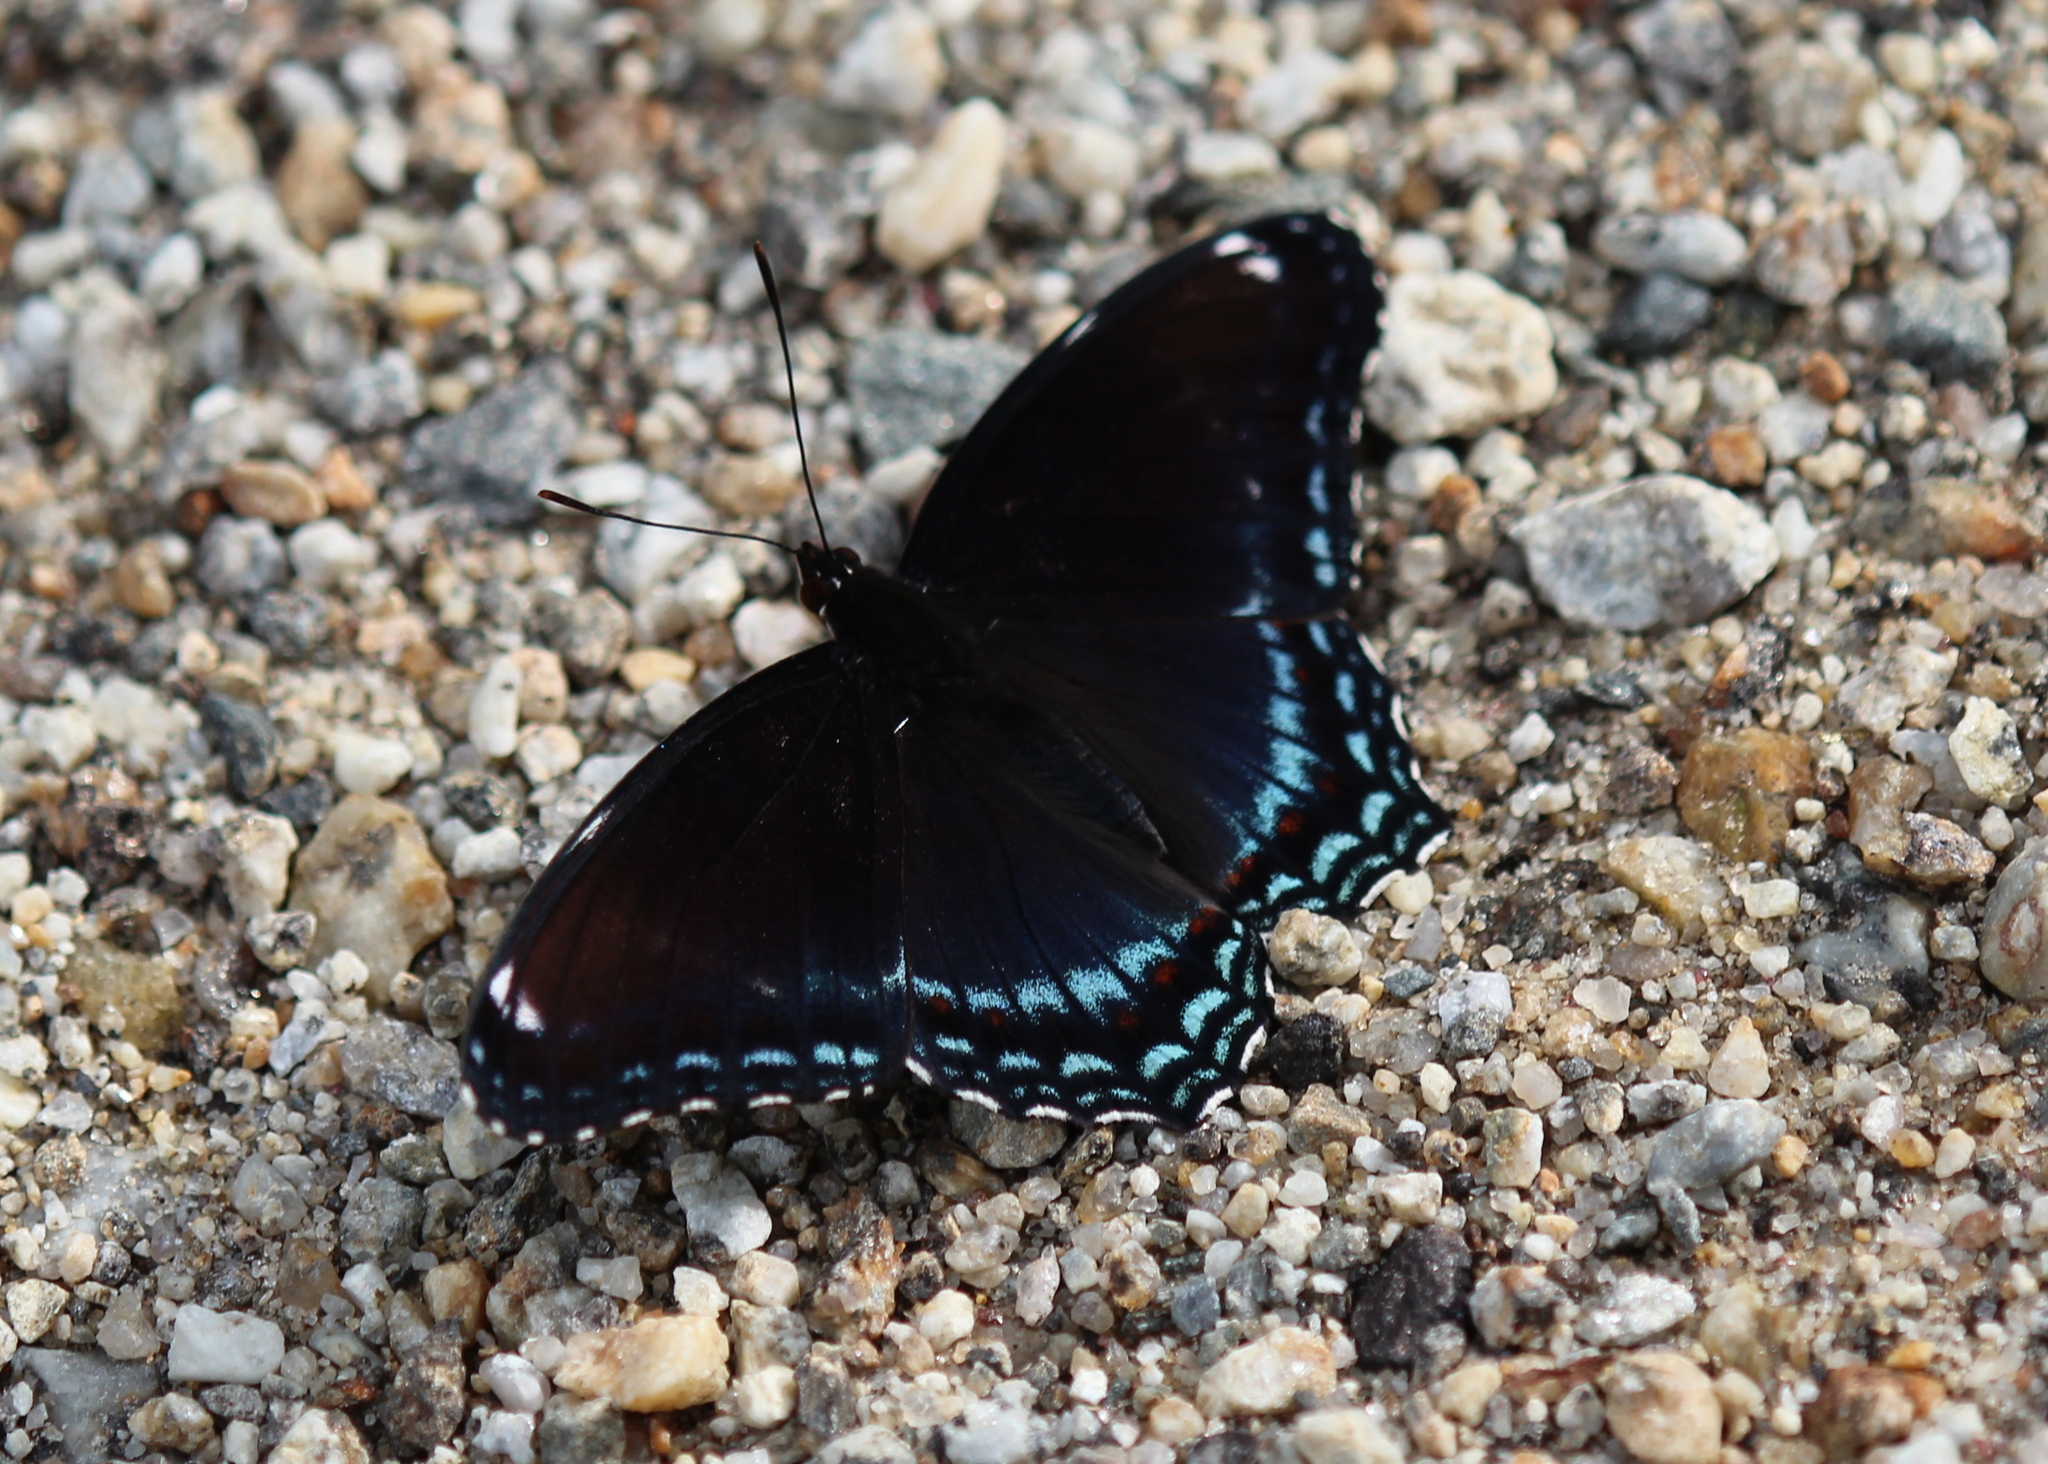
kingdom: Animalia
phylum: Arthropoda
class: Insecta
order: Lepidoptera
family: Nymphalidae
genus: Limenitis
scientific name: Limenitis arthemis
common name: Red-spotted admiral
